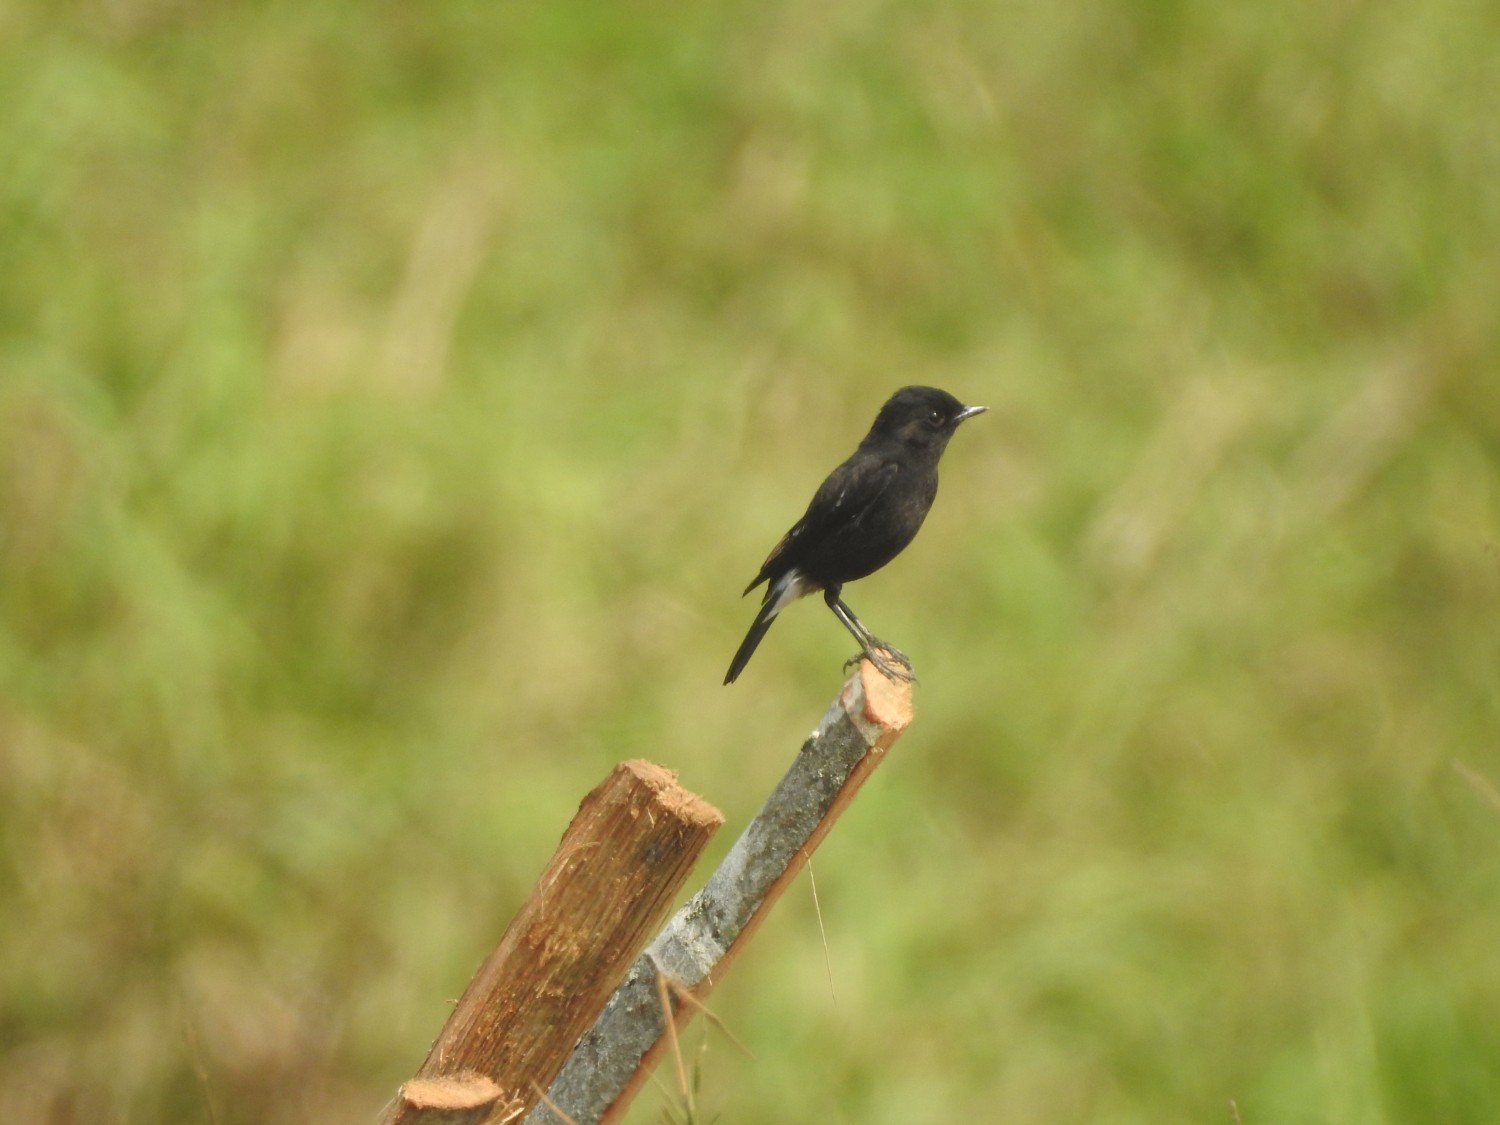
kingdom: Animalia
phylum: Chordata
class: Aves
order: Passeriformes
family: Muscicapidae
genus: Saxicola
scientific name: Saxicola caprata
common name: Pied bush chat
